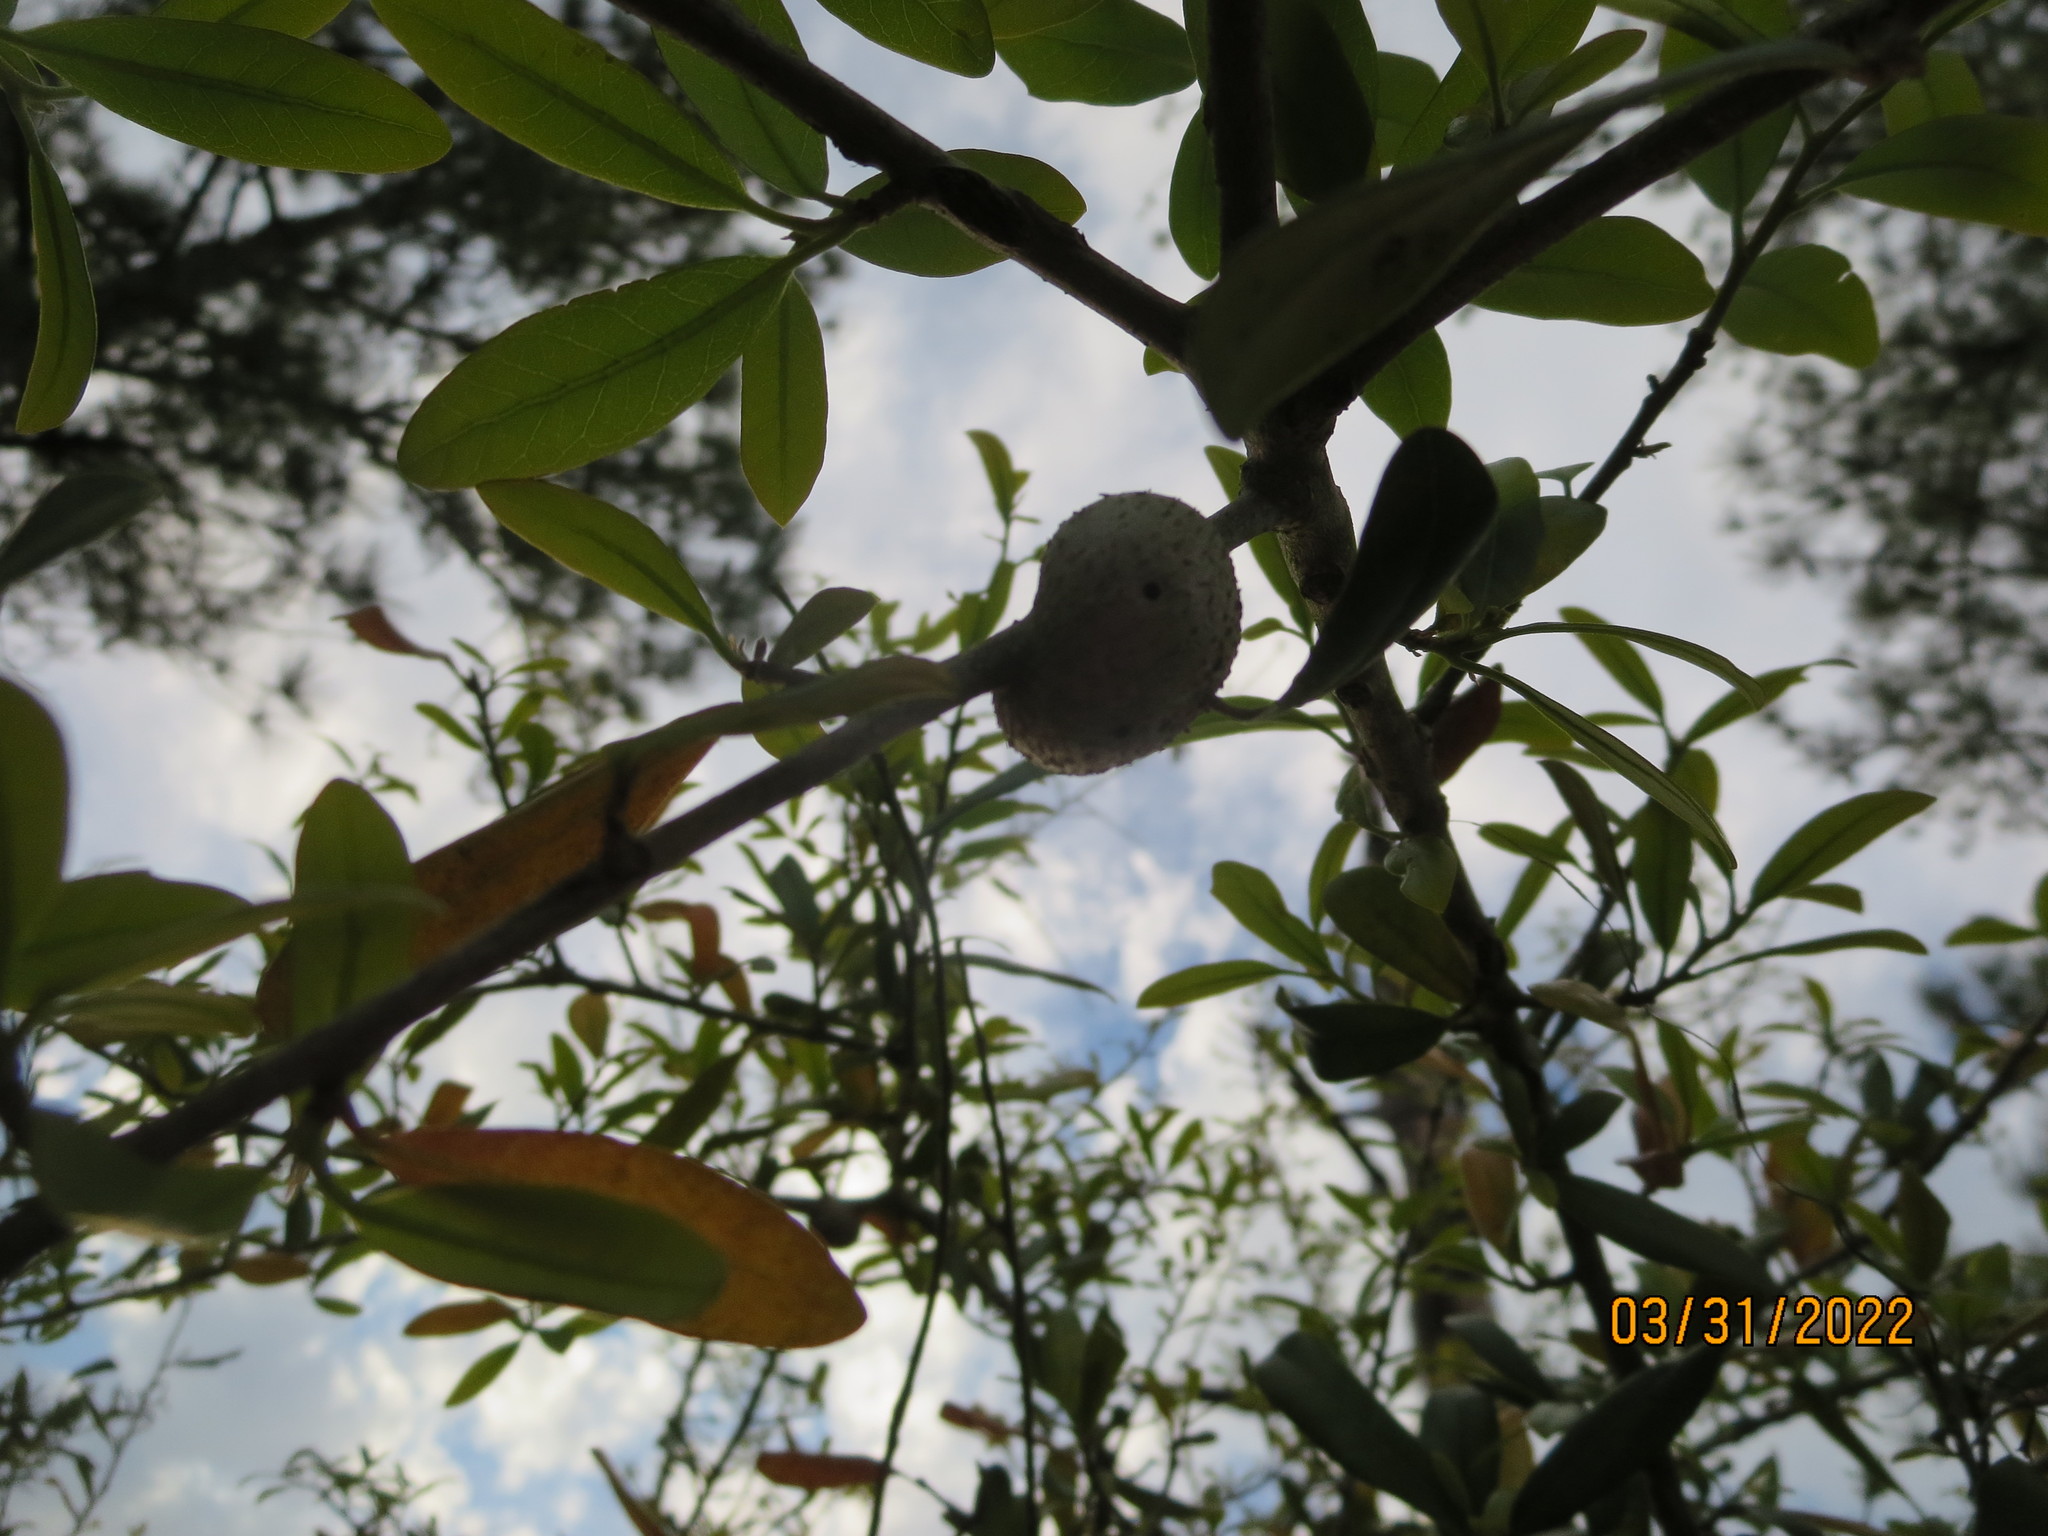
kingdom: Animalia
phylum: Arthropoda
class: Insecta
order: Hymenoptera
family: Cynipidae
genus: Callirhytis
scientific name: Callirhytis
